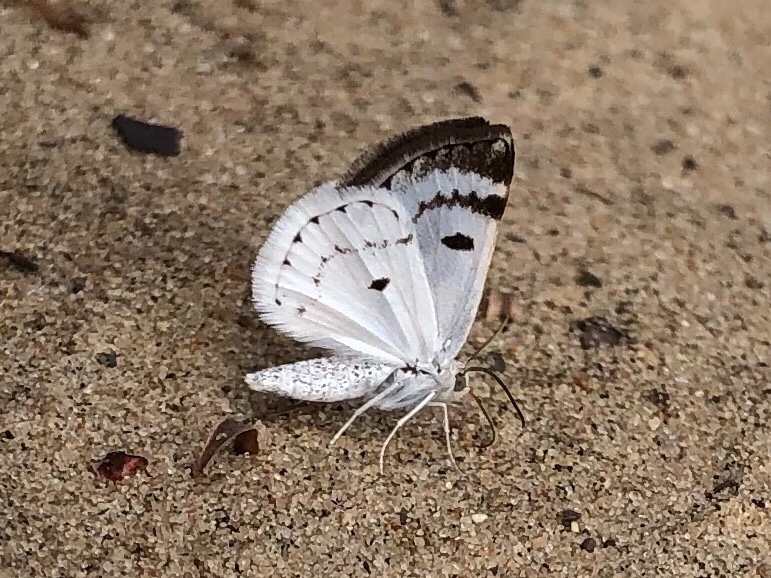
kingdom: Animalia
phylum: Arthropoda
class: Insecta
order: Lepidoptera
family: Geometridae
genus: Lomographa
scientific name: Lomographa semiclarata
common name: Bluish spring moth
